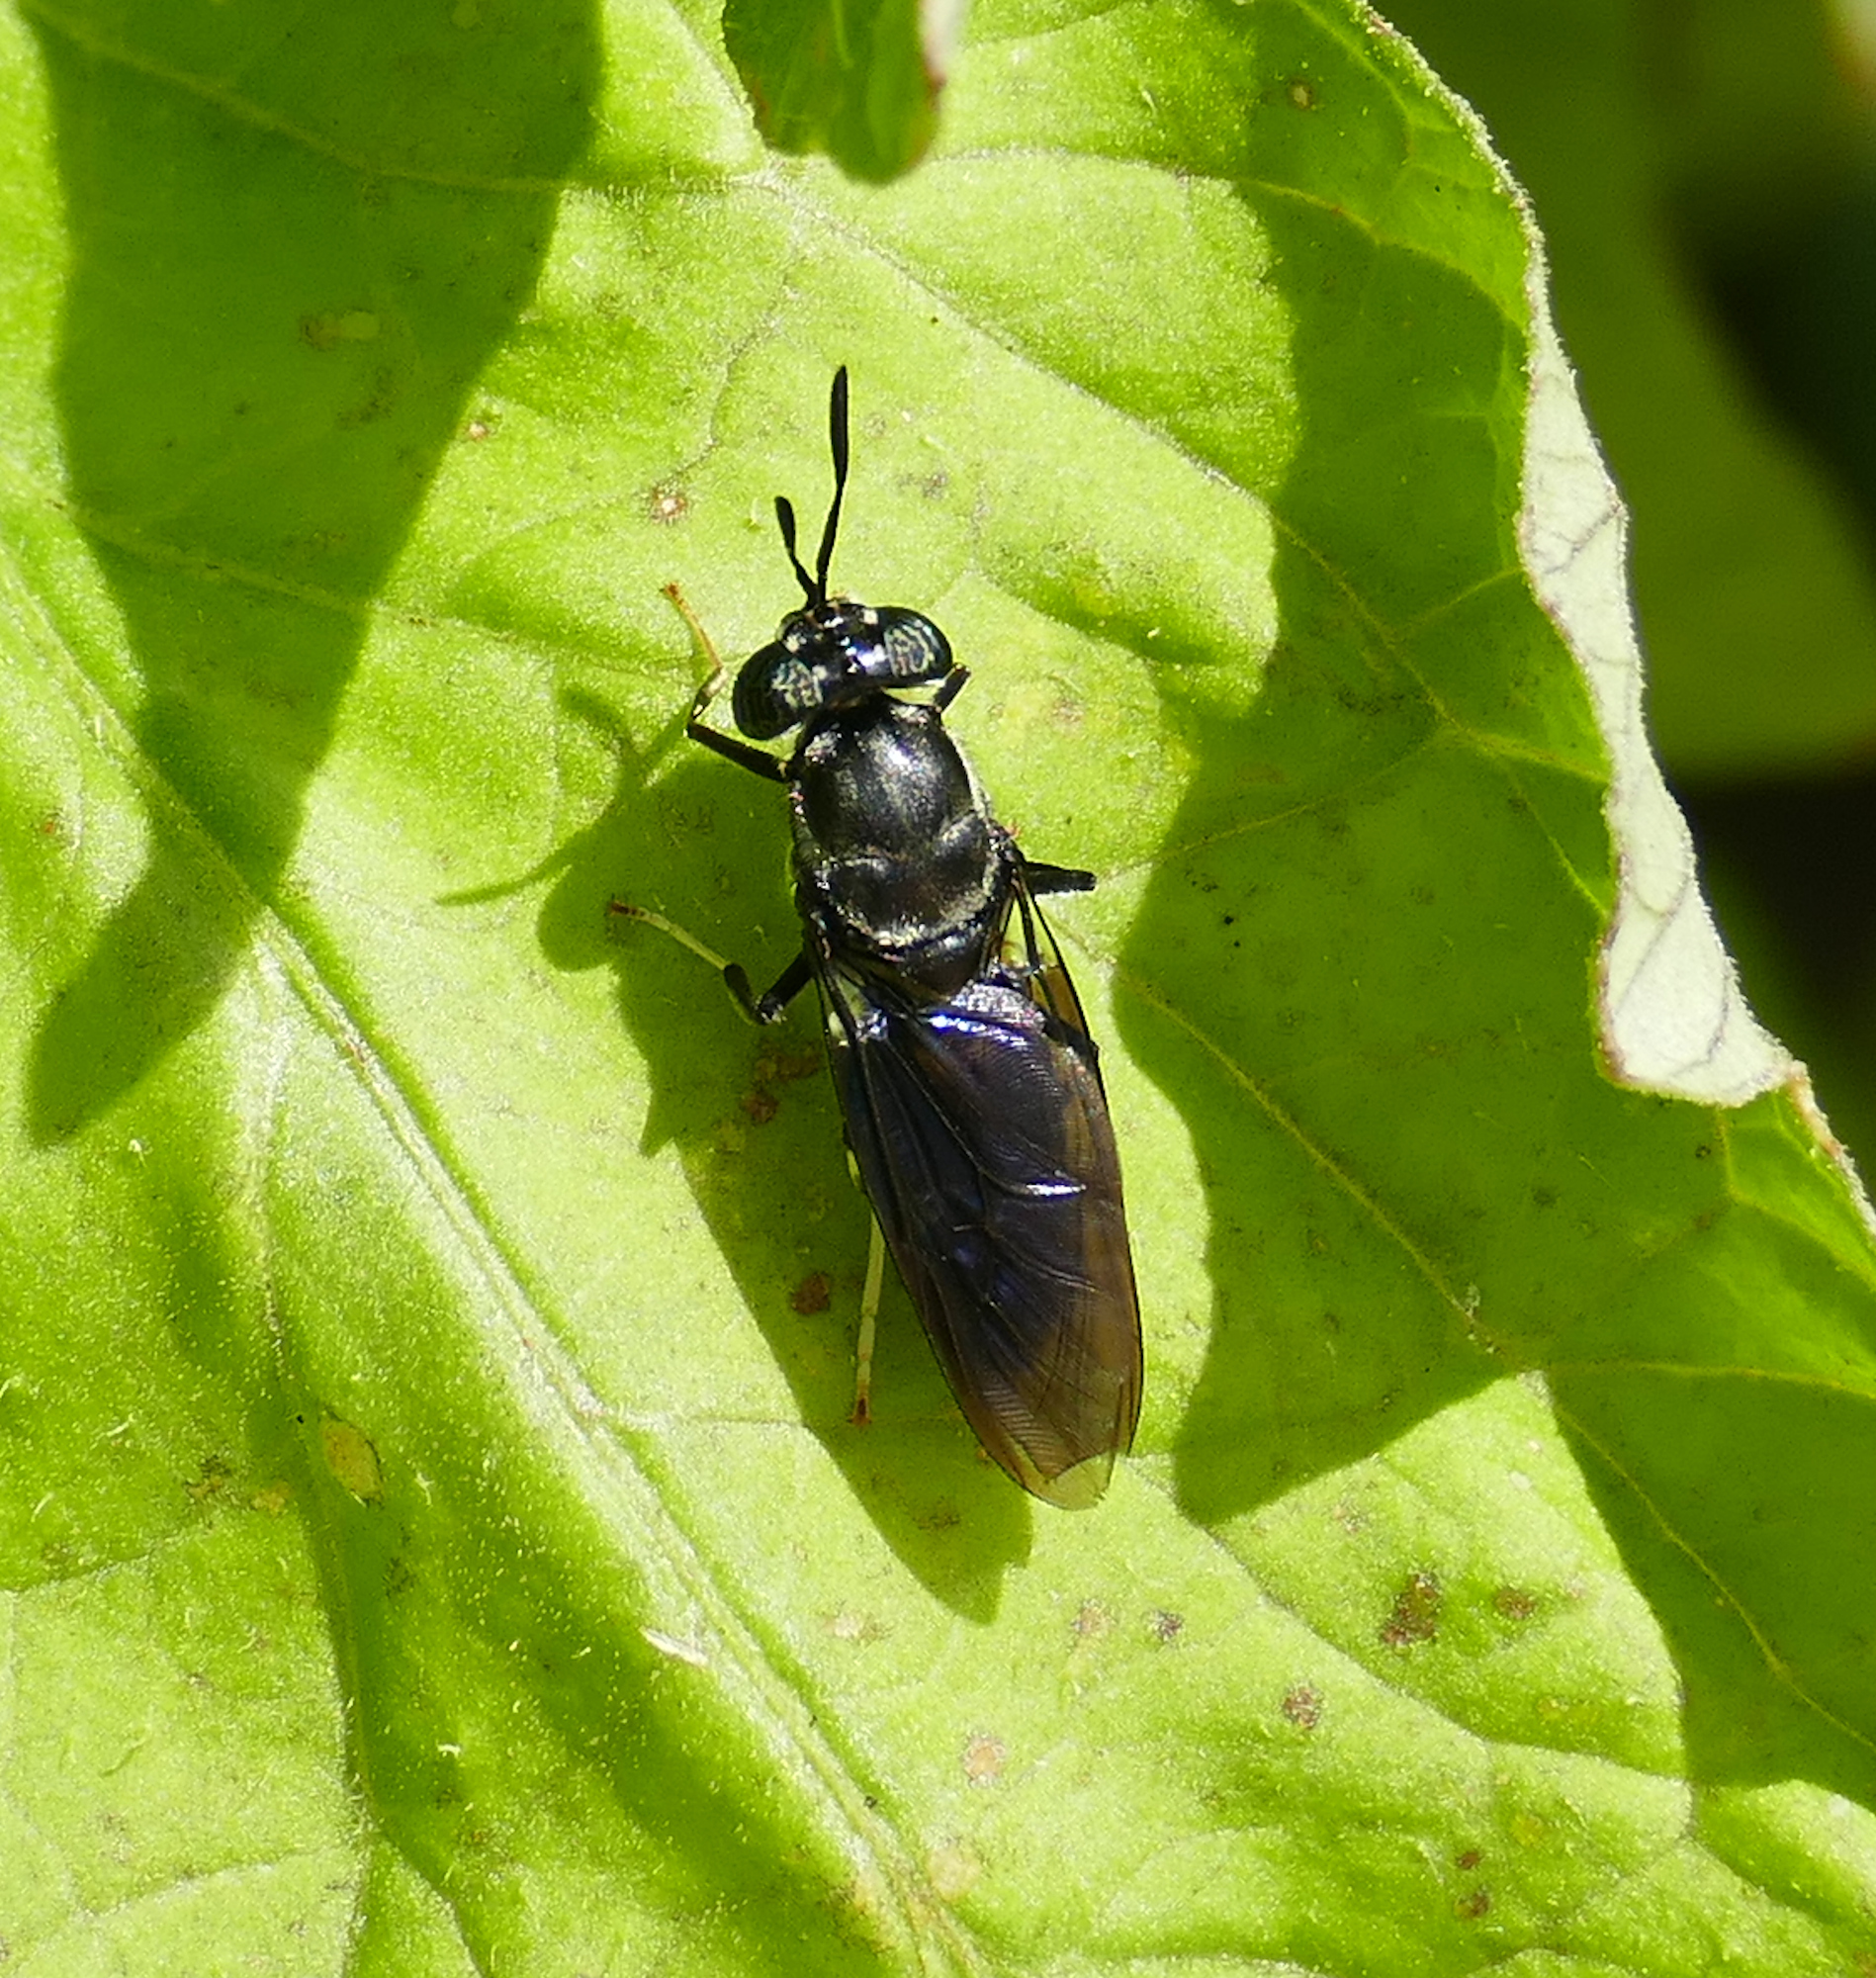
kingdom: Animalia
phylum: Arthropoda
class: Insecta
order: Diptera
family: Stratiomyidae
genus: Hermetia
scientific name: Hermetia illucens
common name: Black soldier fly
